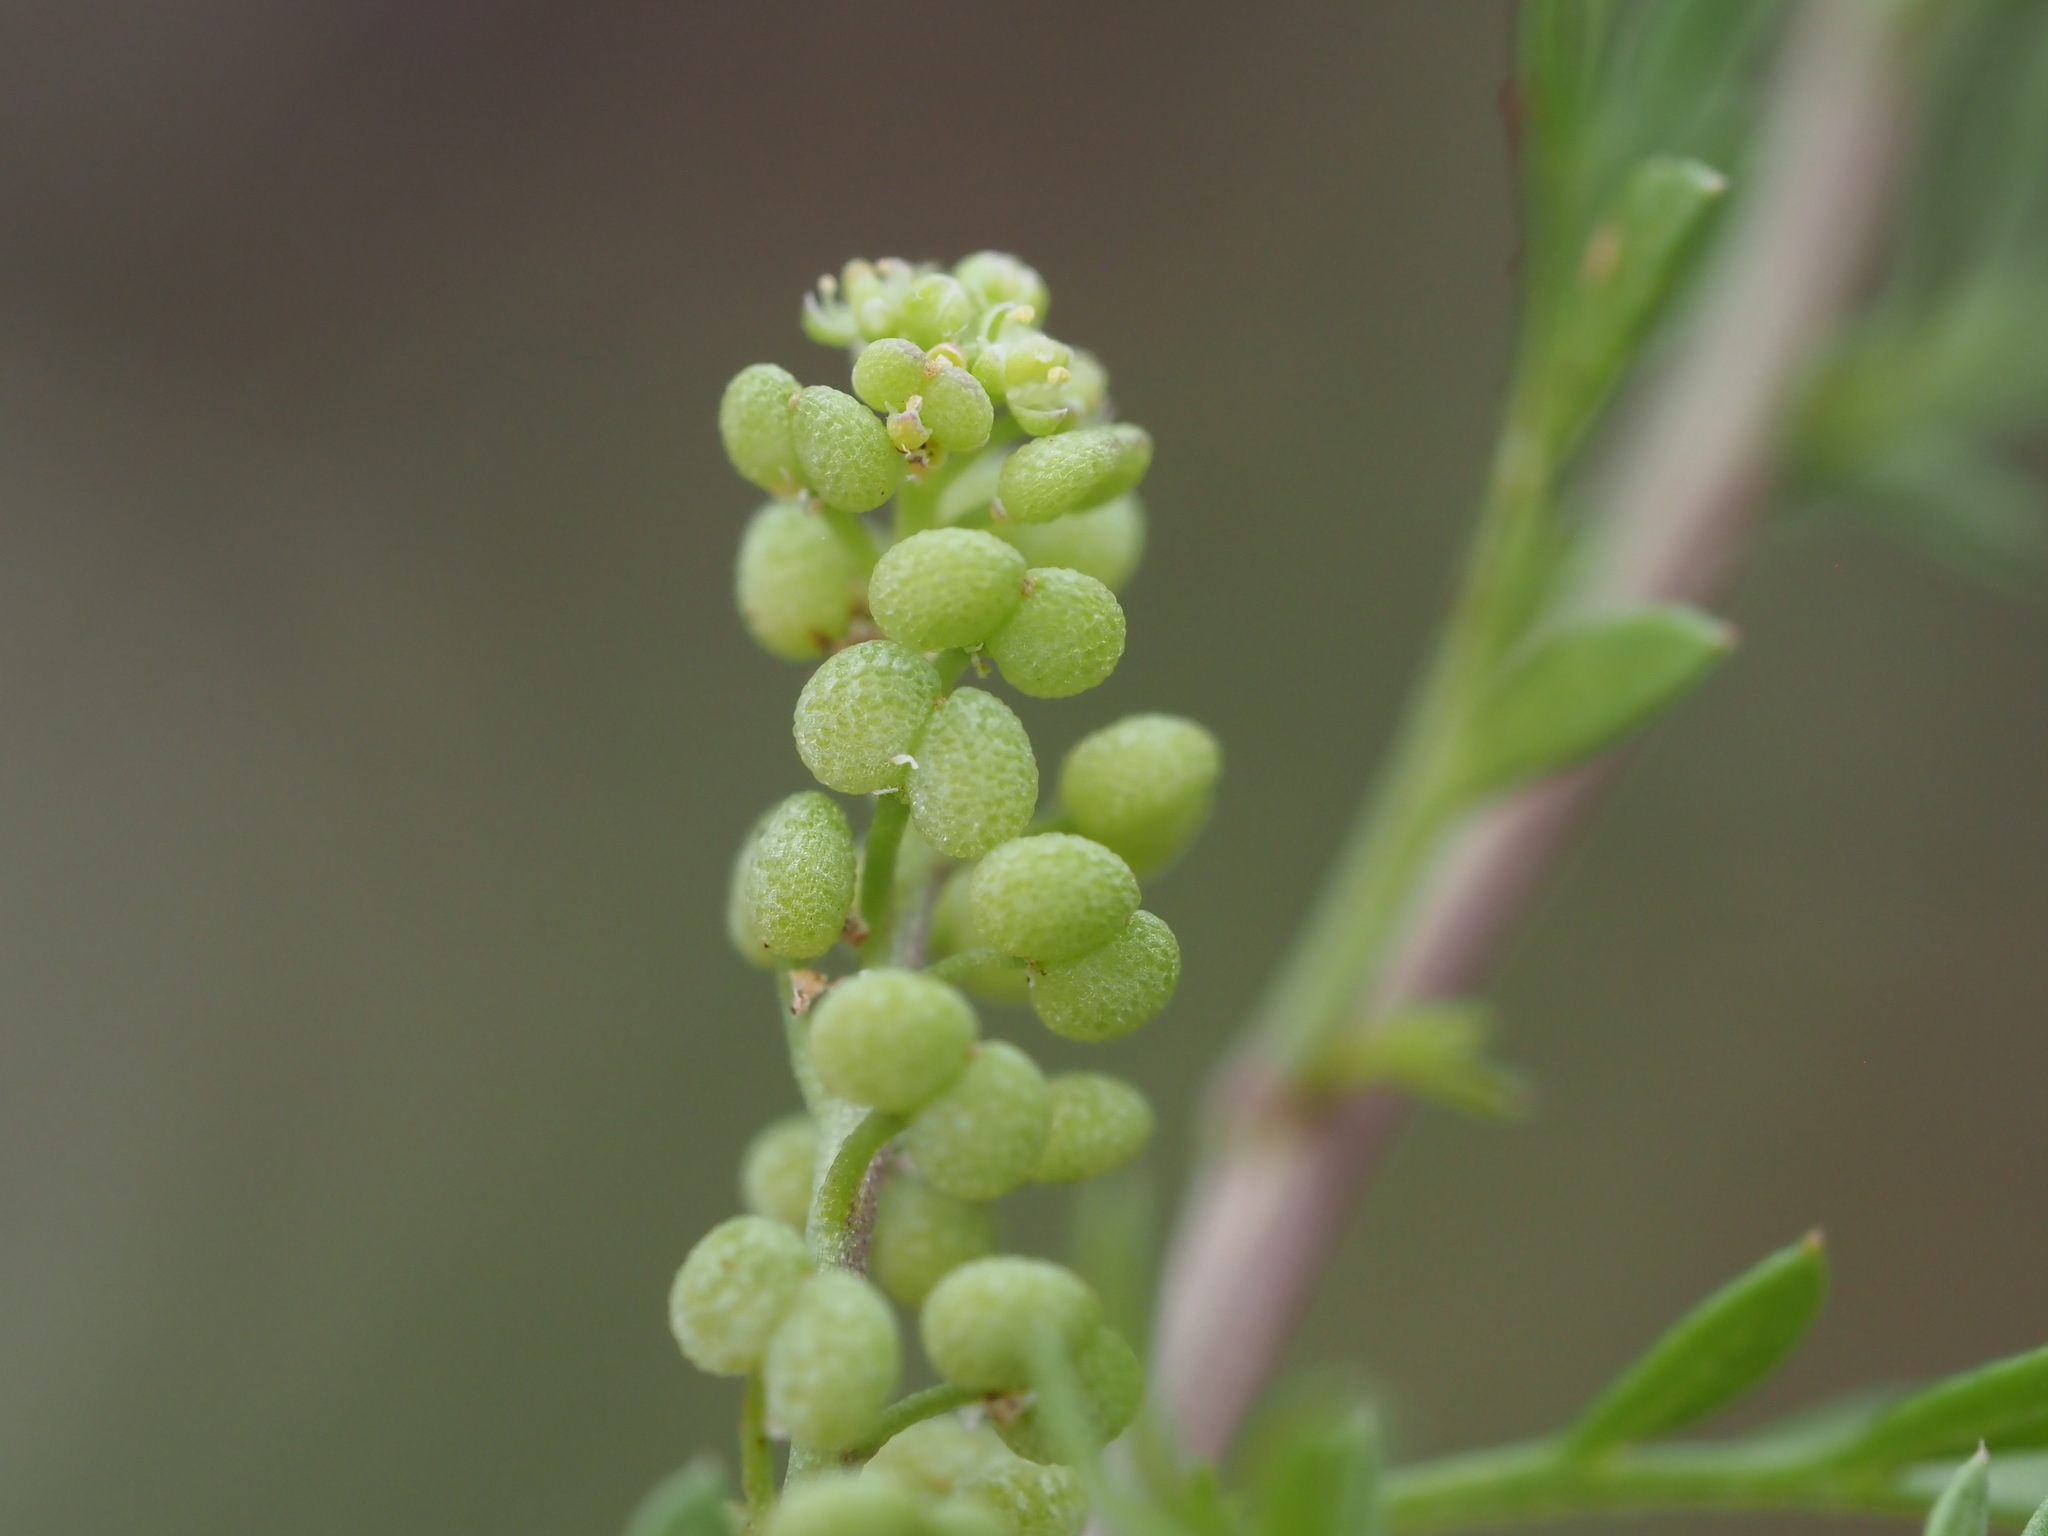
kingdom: Plantae
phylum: Tracheophyta
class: Magnoliopsida
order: Brassicales
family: Brassicaceae
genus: Lepidium
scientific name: Lepidium didymum
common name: Lesser swinecress
